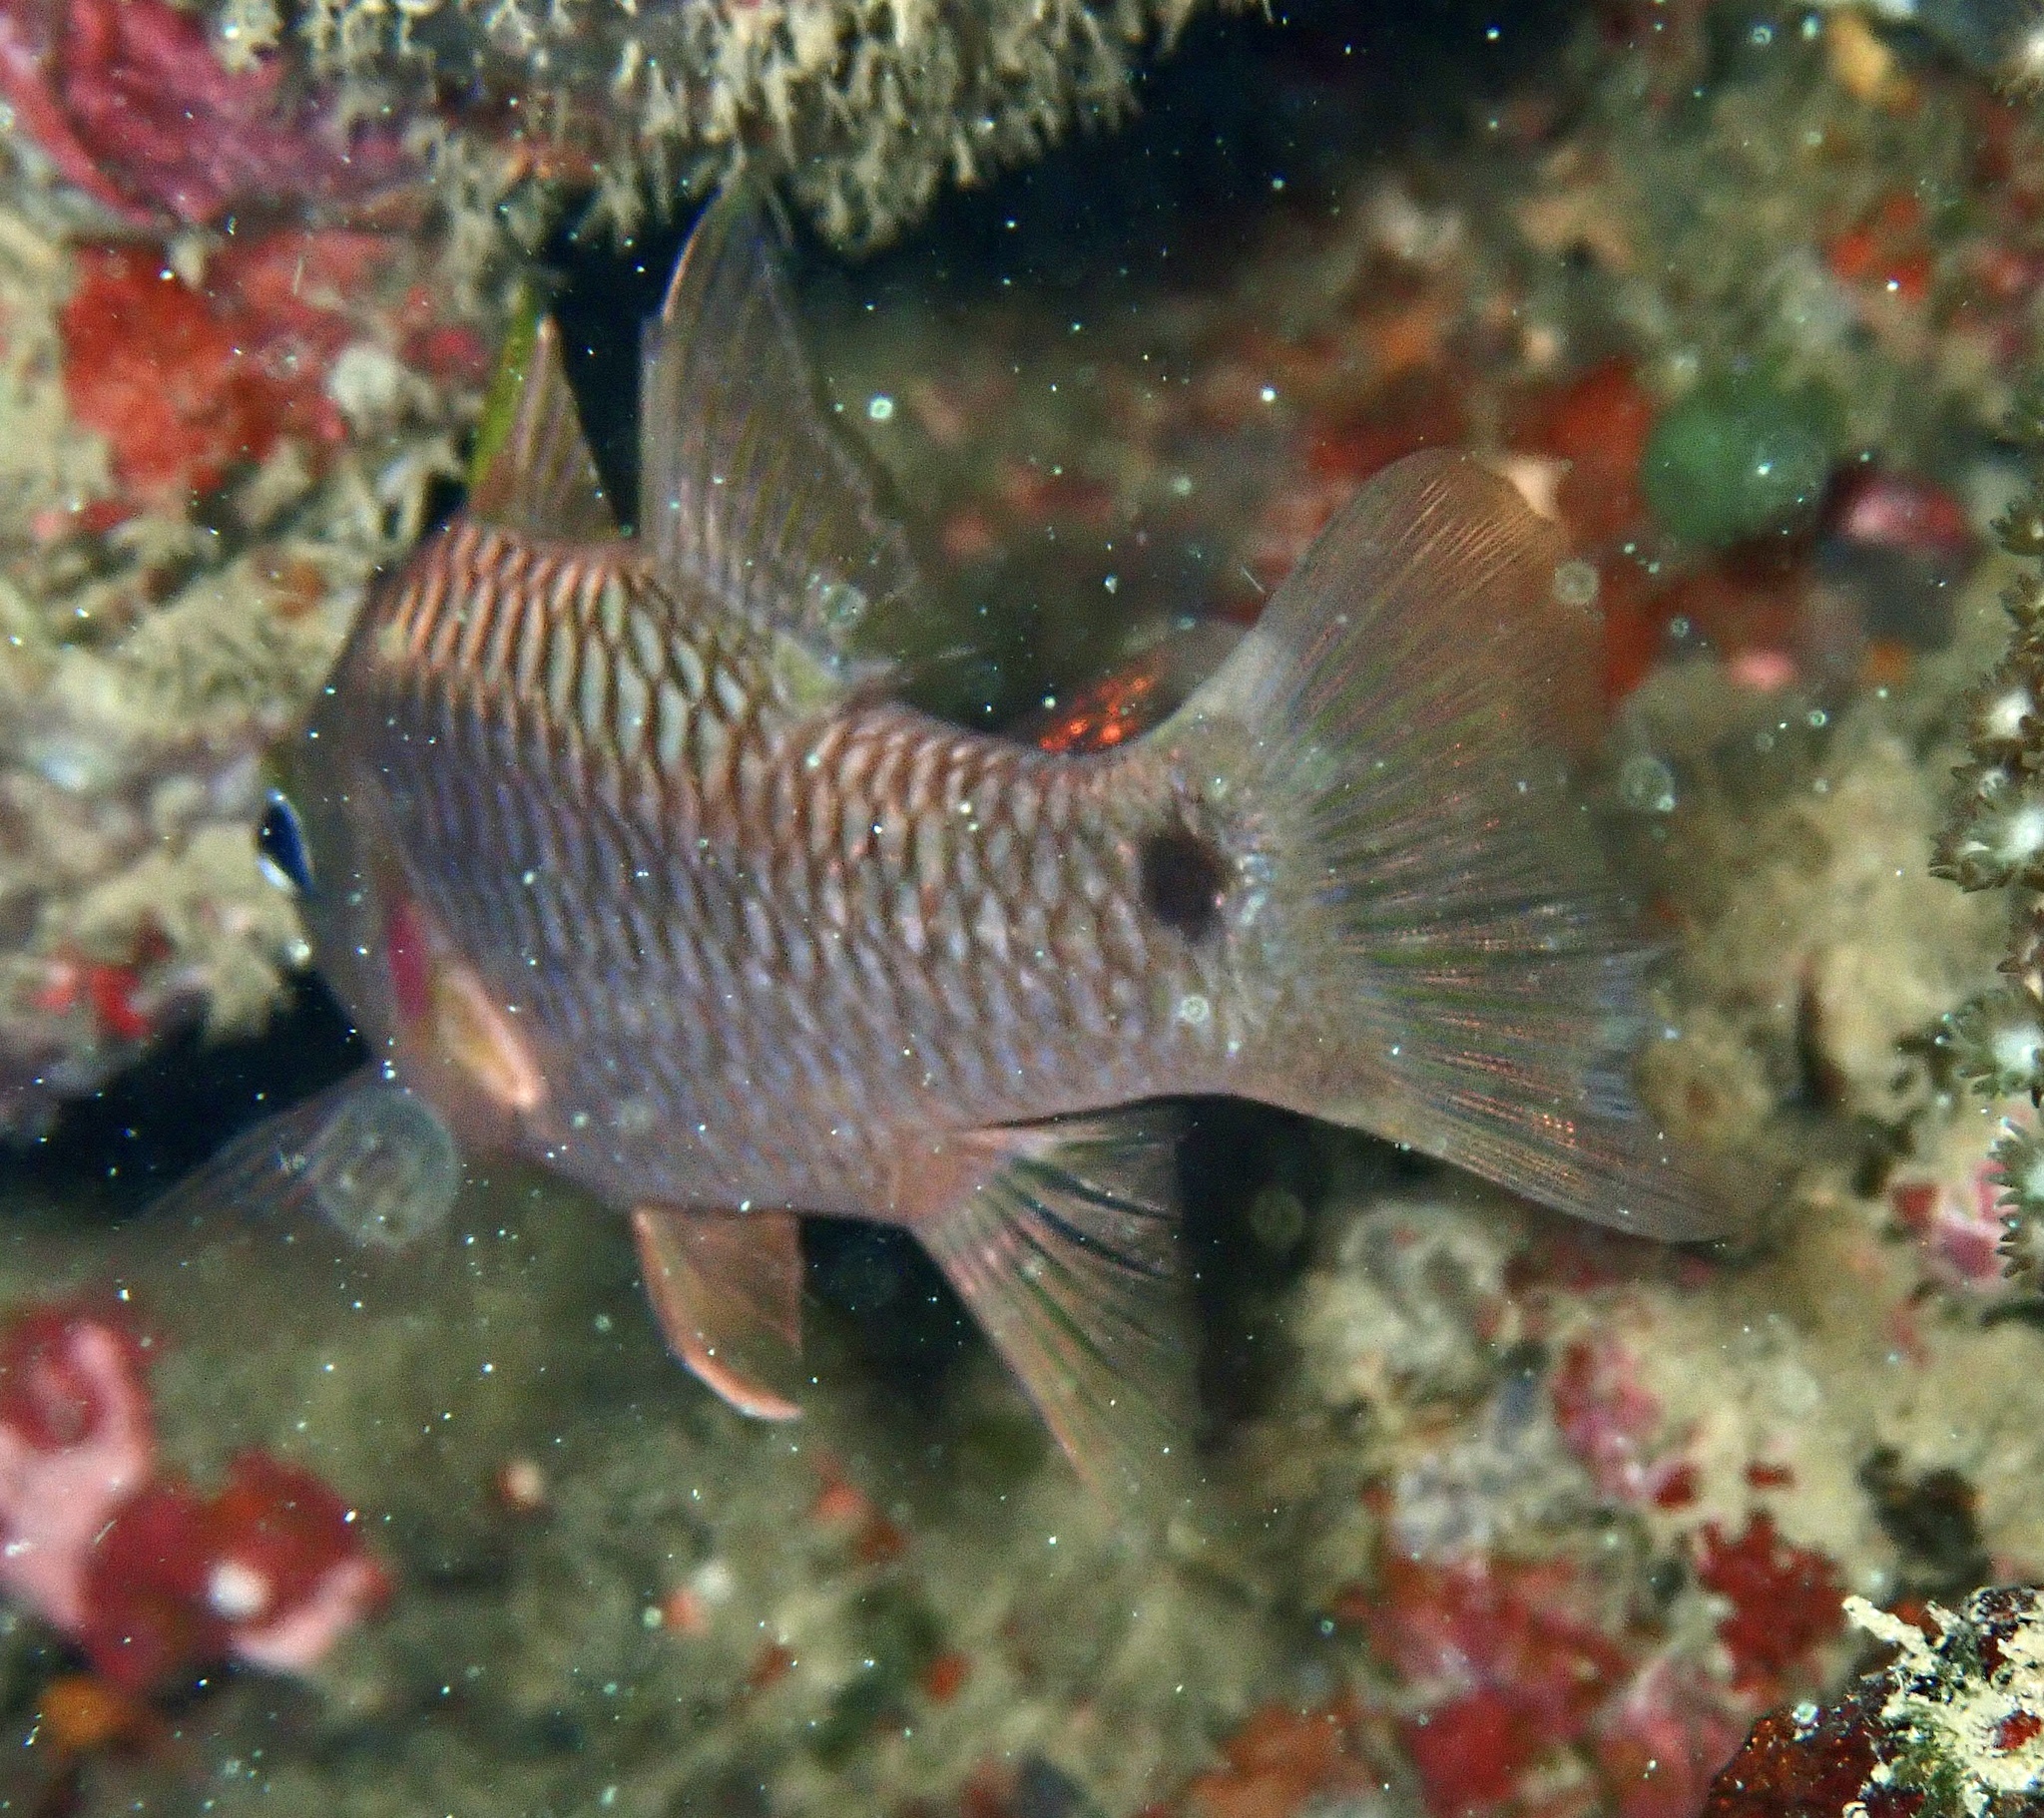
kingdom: Animalia
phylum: Chordata
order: Perciformes
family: Apogonidae
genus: Pristiapogon
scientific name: Pristiapogon kallopterus
